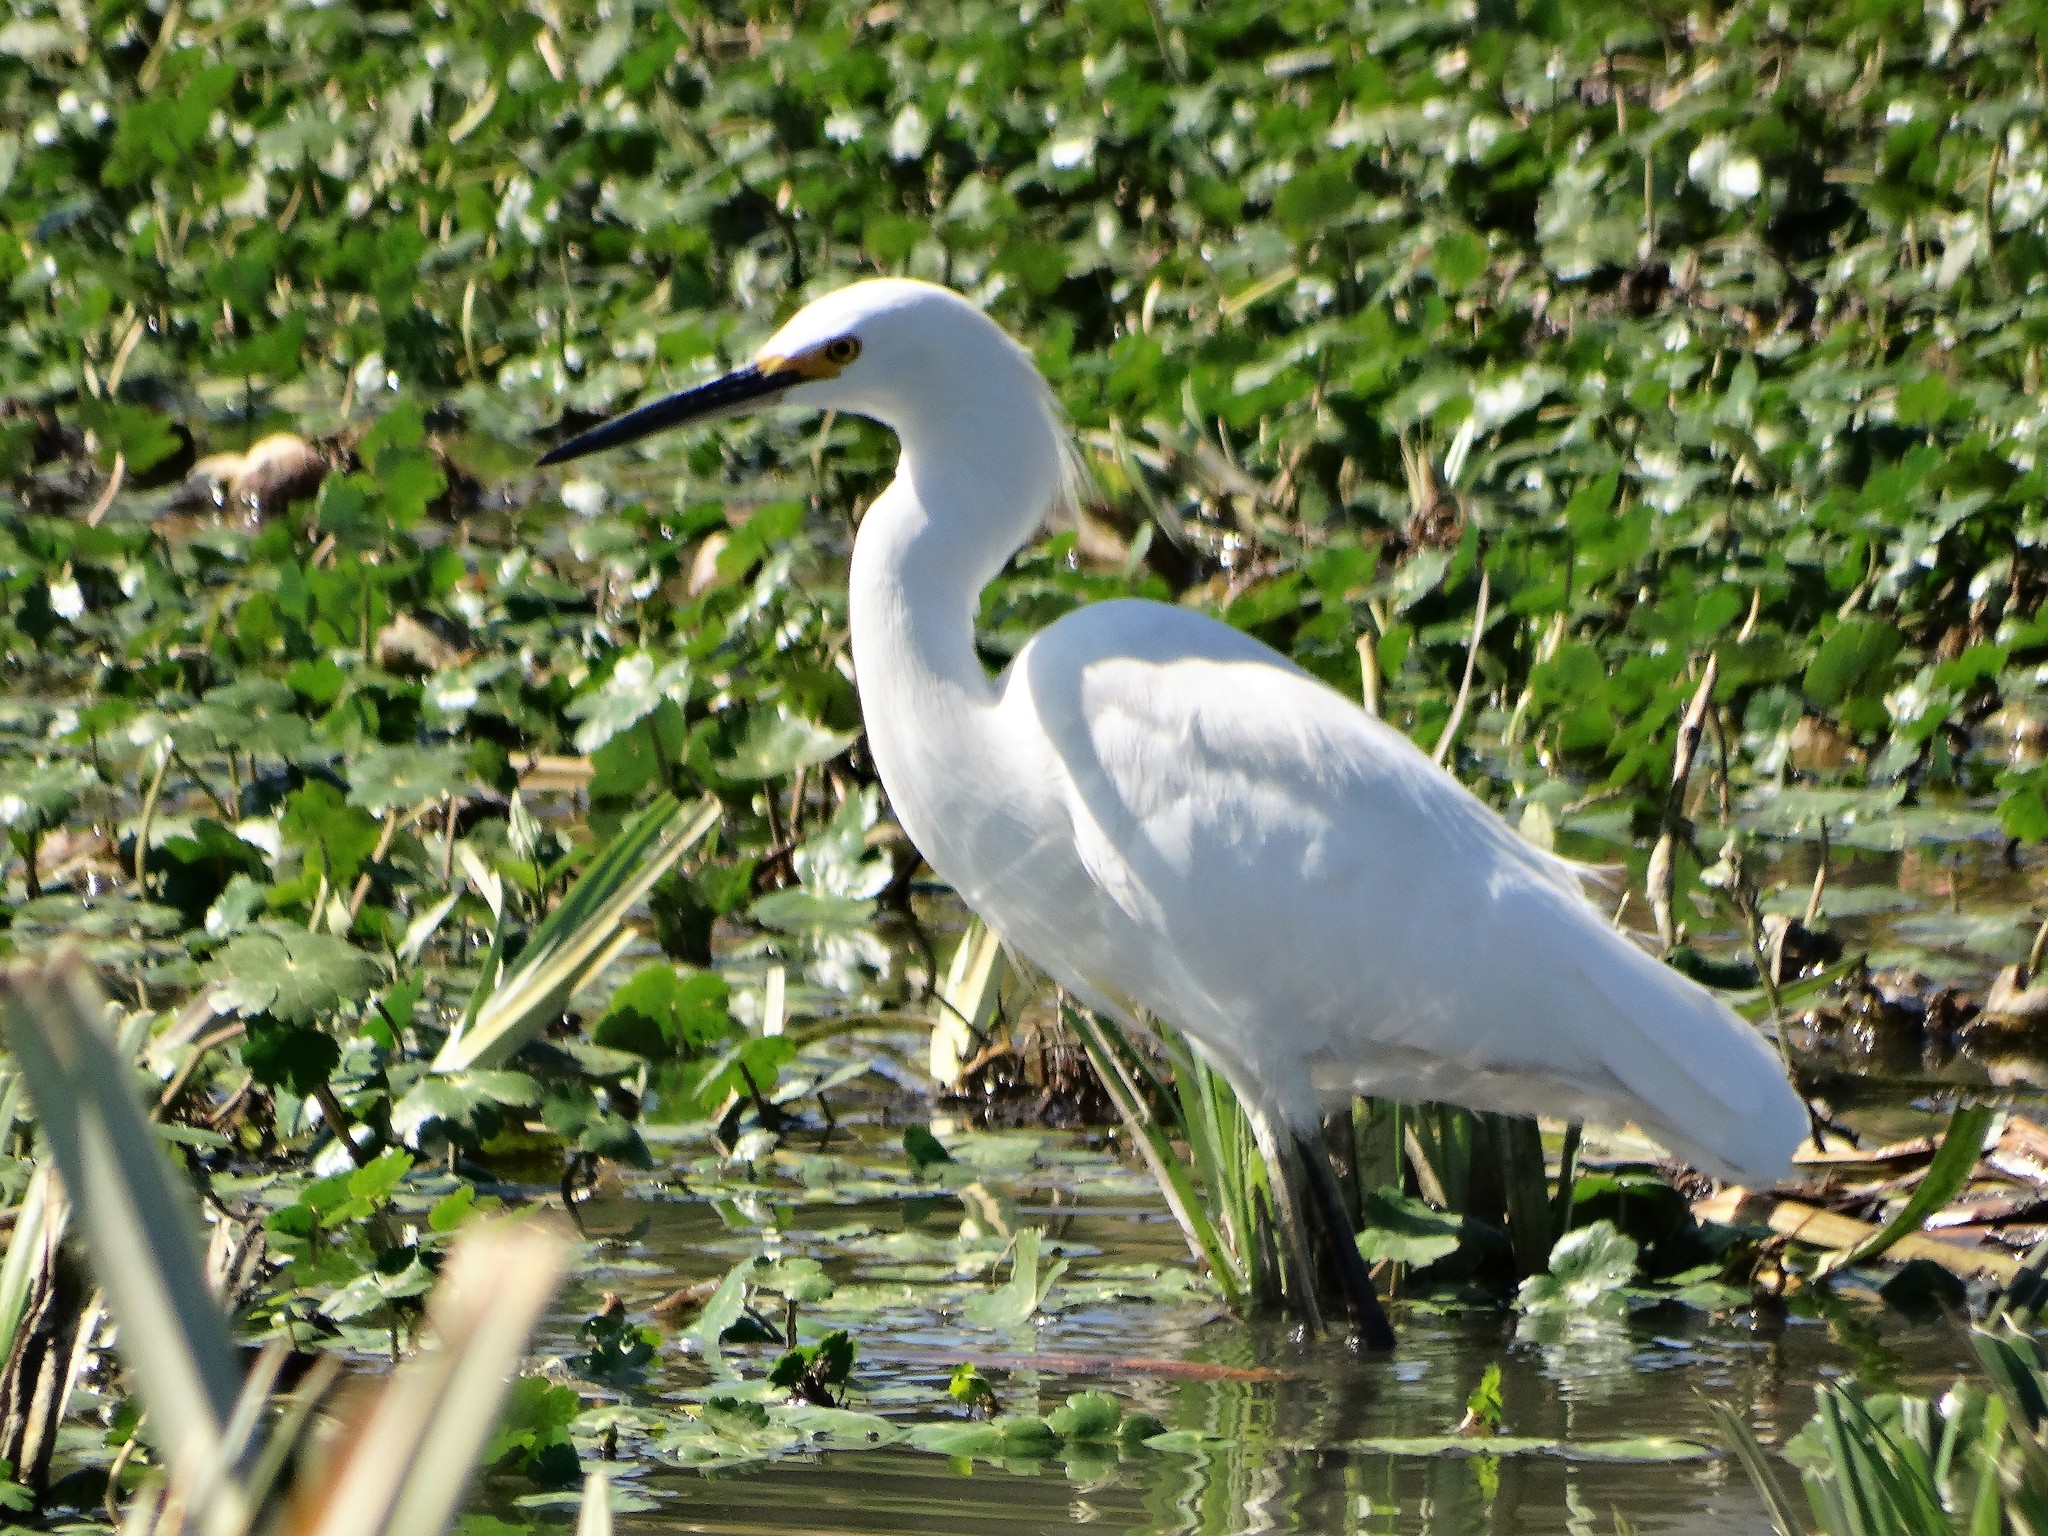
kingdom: Animalia
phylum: Chordata
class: Aves
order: Pelecaniformes
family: Ardeidae
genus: Egretta
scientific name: Egretta thula
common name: Snowy egret
